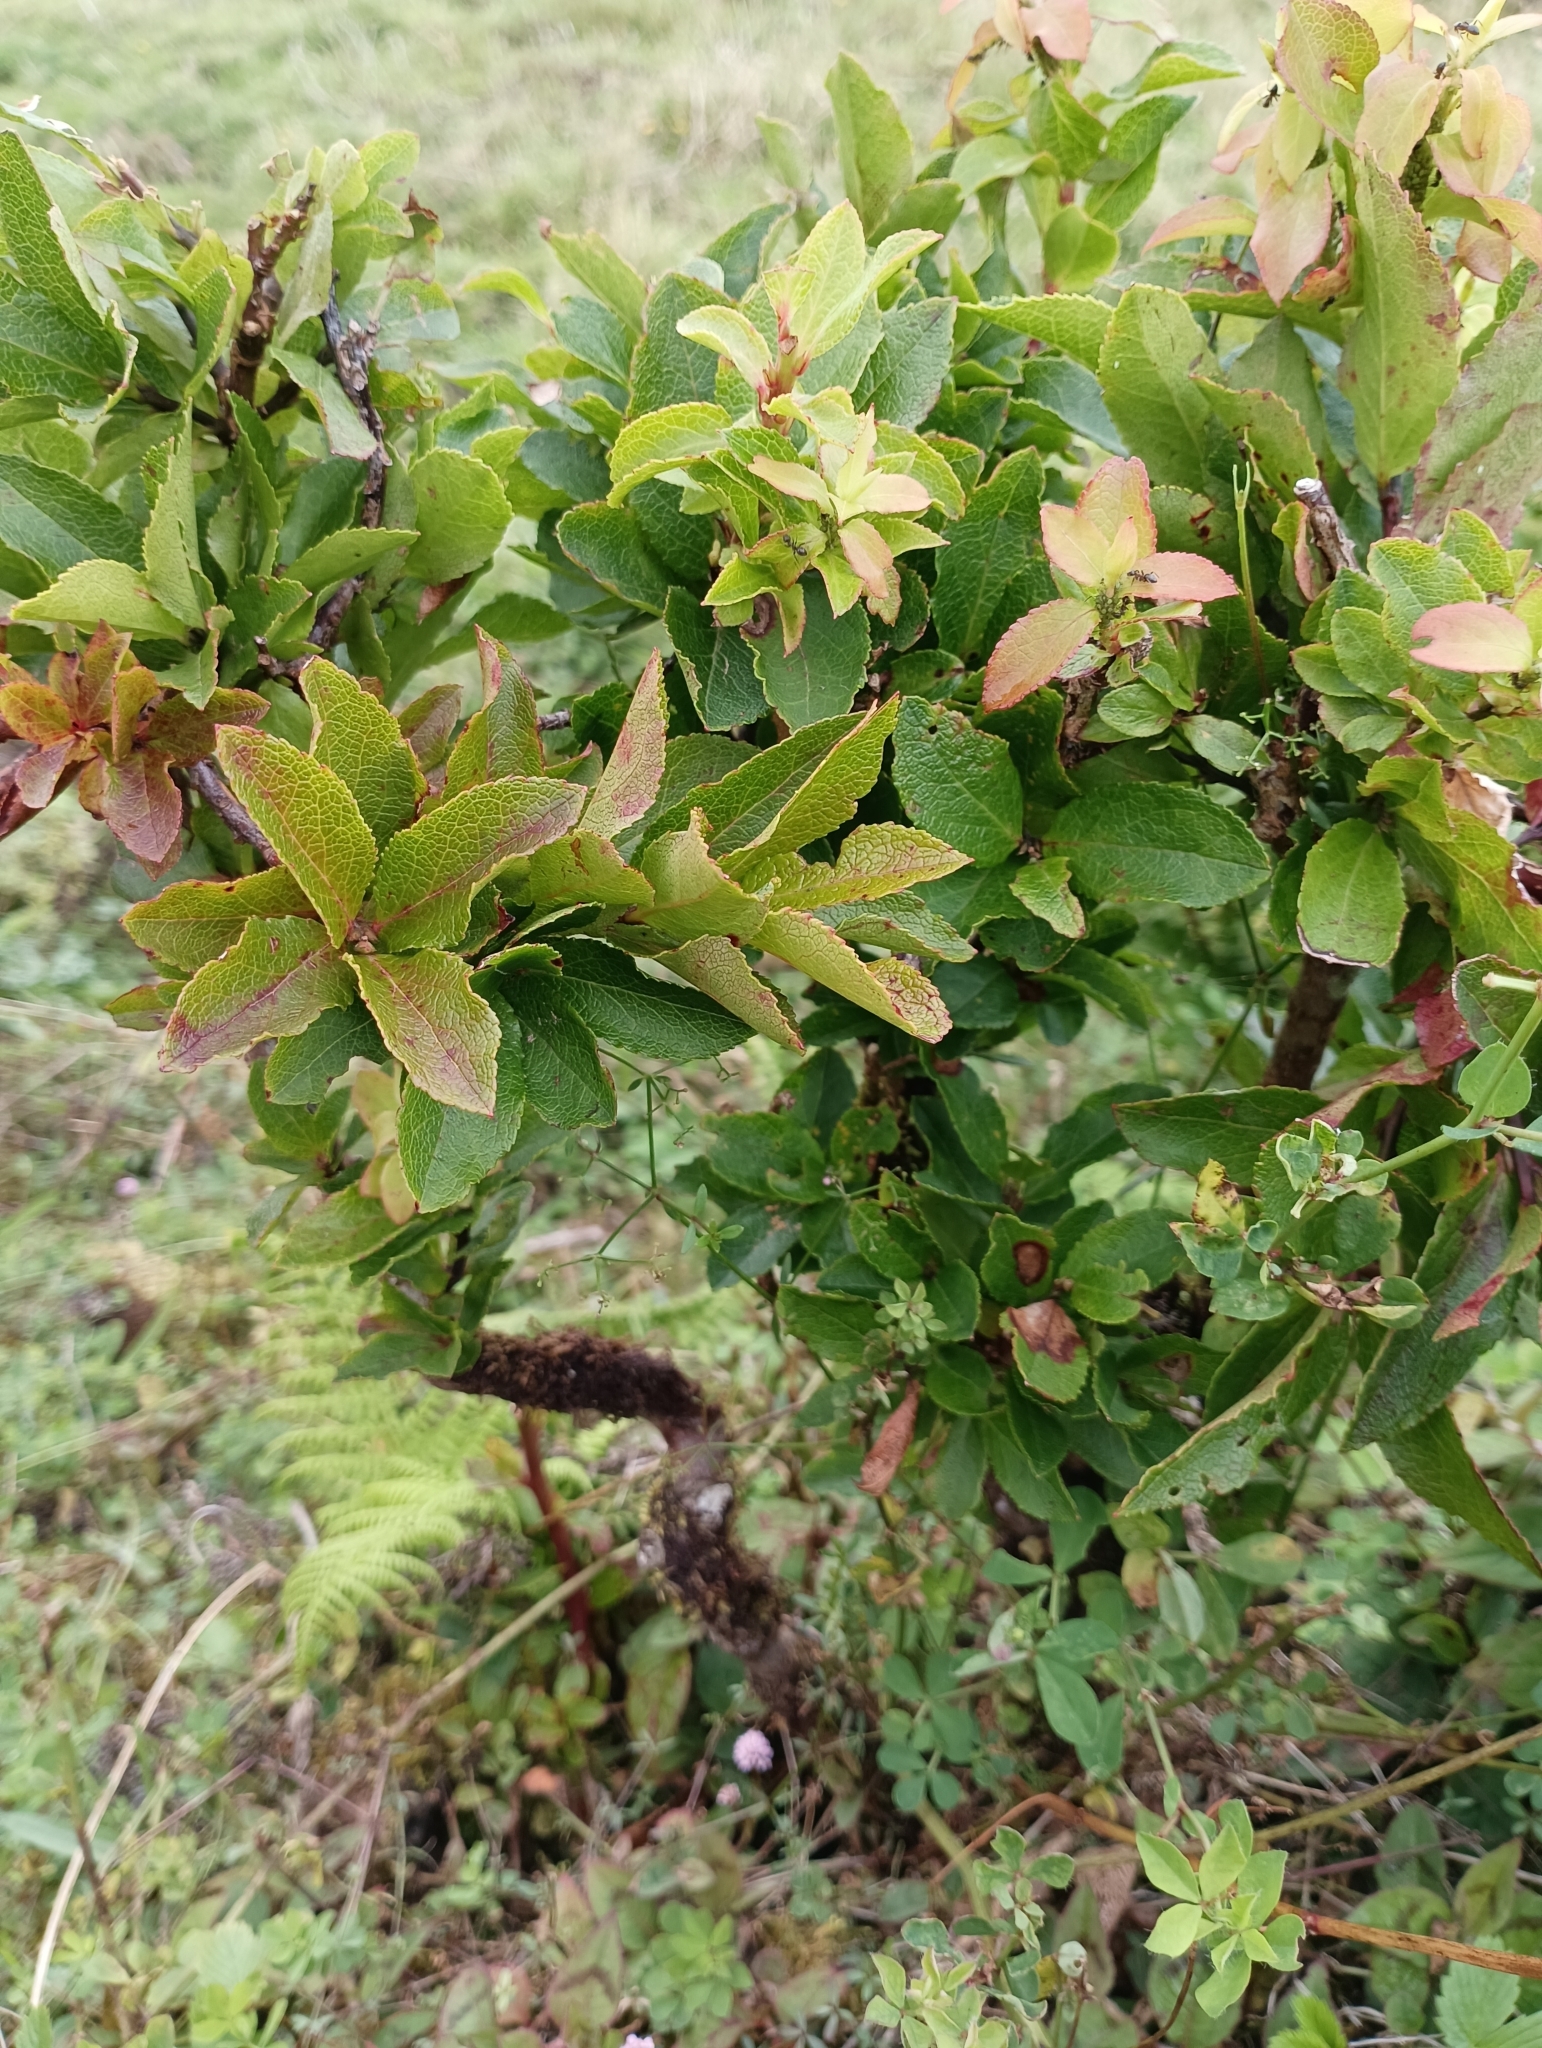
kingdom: Plantae
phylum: Tracheophyta
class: Magnoliopsida
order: Ericales
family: Ericaceae
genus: Vaccinium
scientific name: Vaccinium cylindraceum
